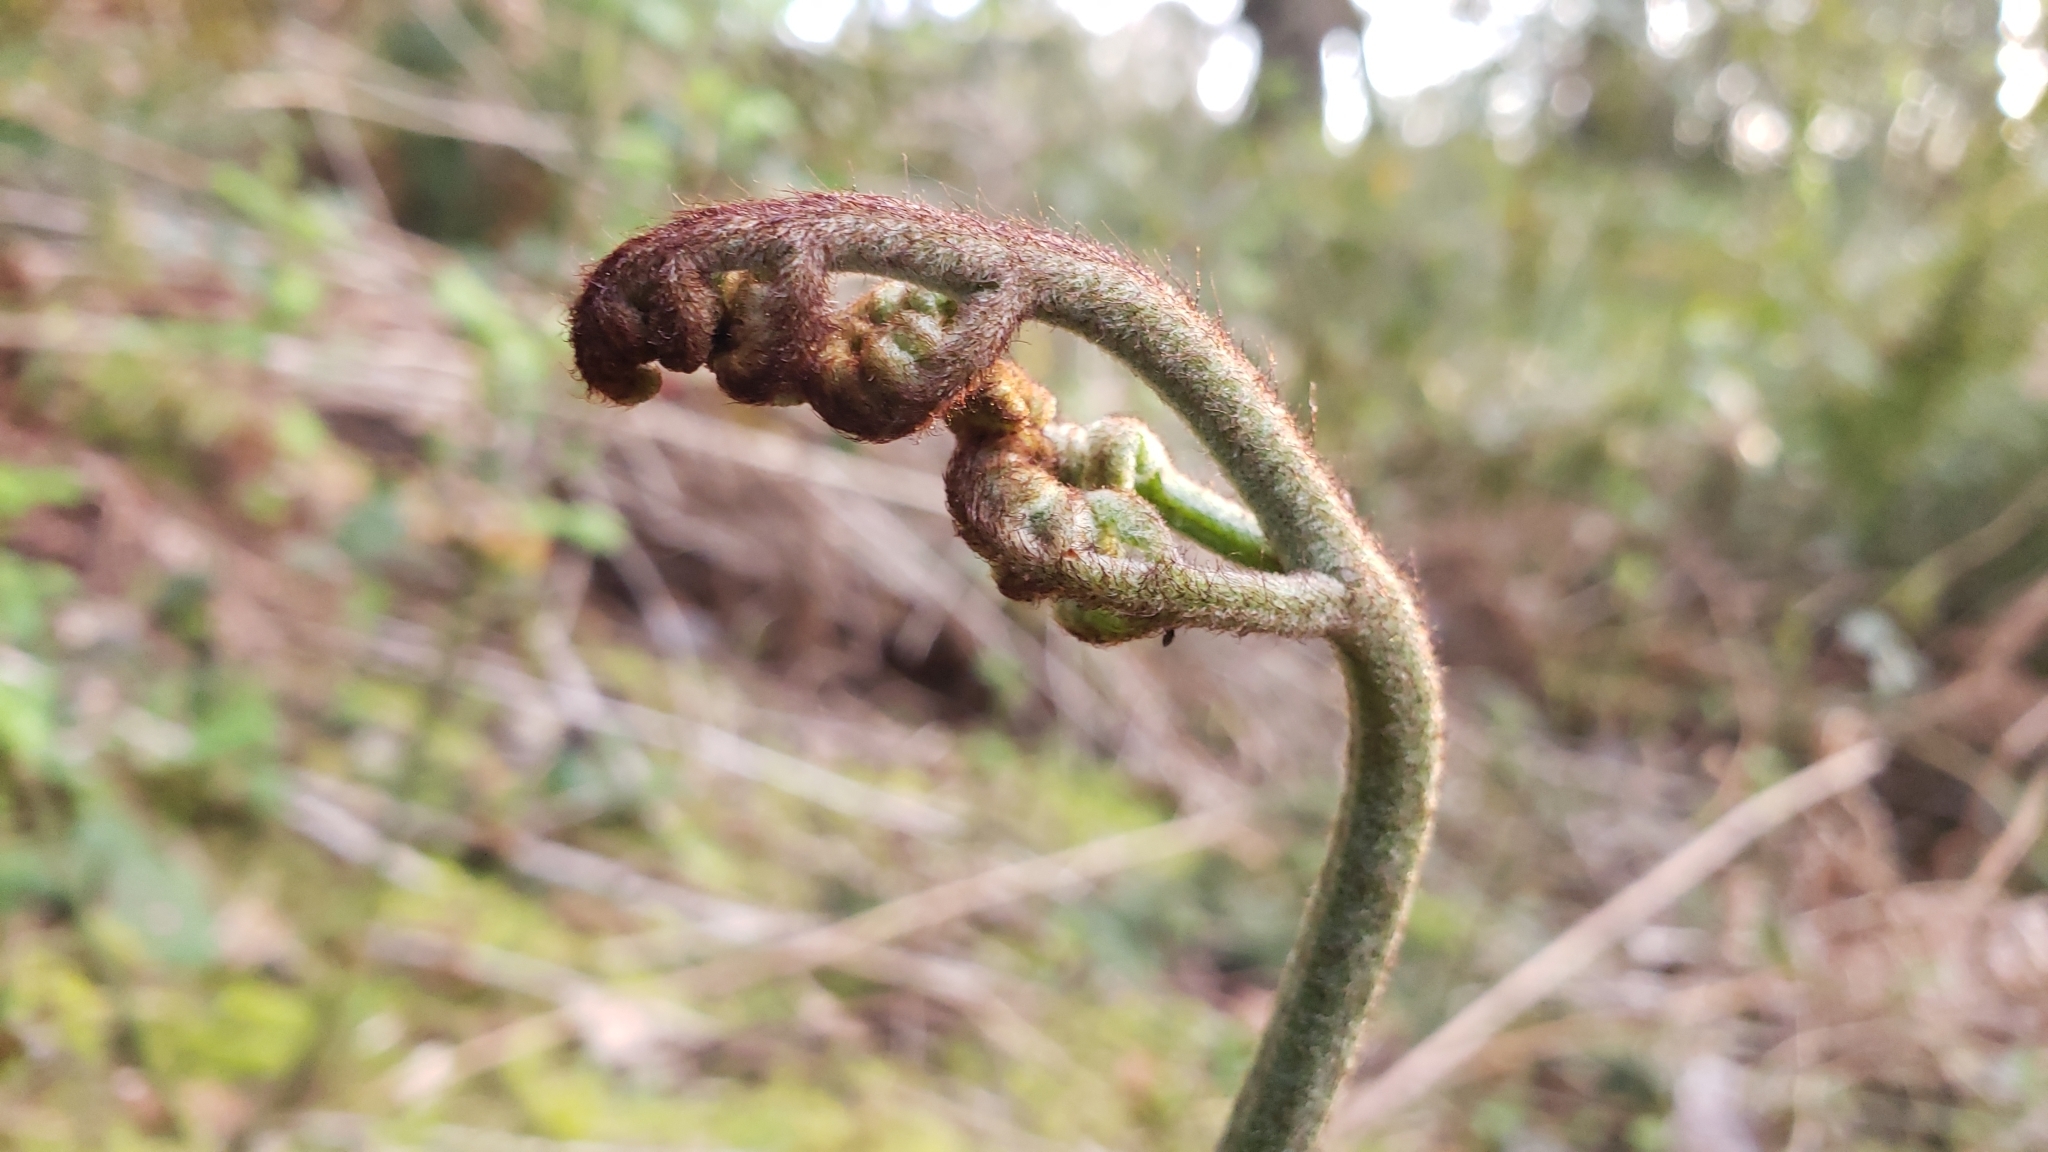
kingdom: Plantae
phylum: Tracheophyta
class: Polypodiopsida
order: Polypodiales
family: Dennstaedtiaceae
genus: Pteridium
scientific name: Pteridium aquilinum
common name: Bracken
